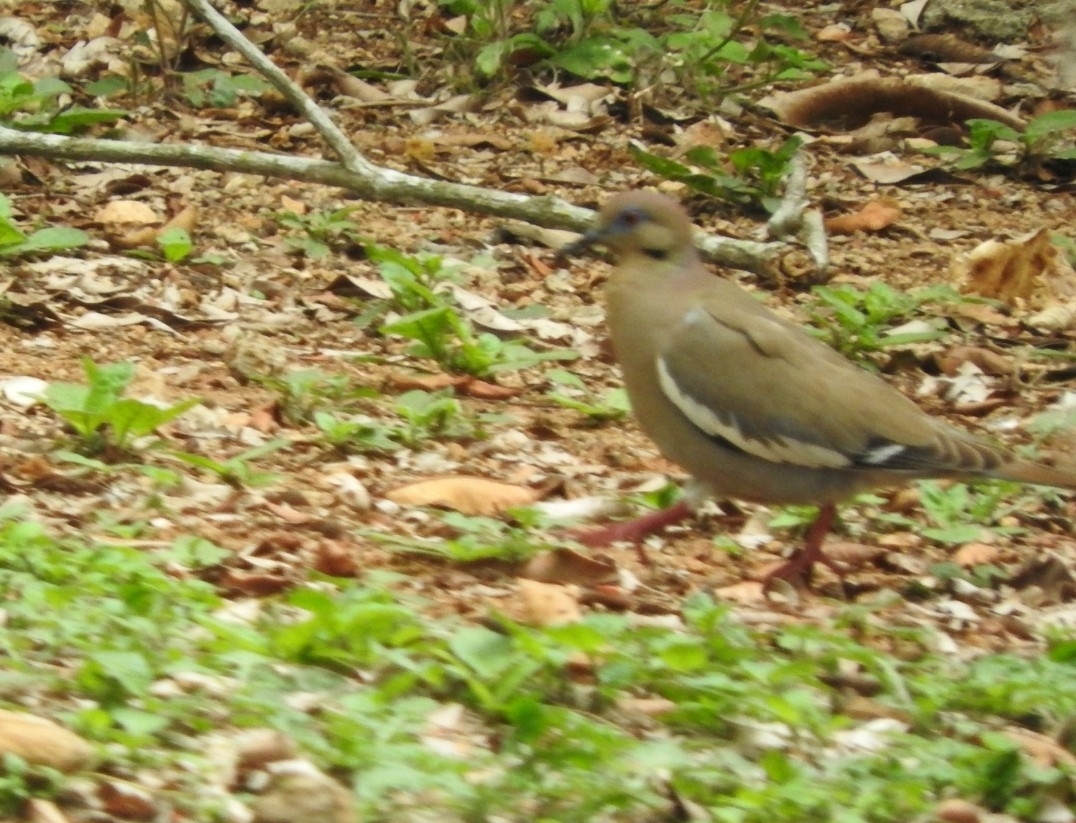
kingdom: Animalia
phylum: Chordata
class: Aves
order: Columbiformes
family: Columbidae
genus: Zenaida
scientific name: Zenaida asiatica
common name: White-winged dove
